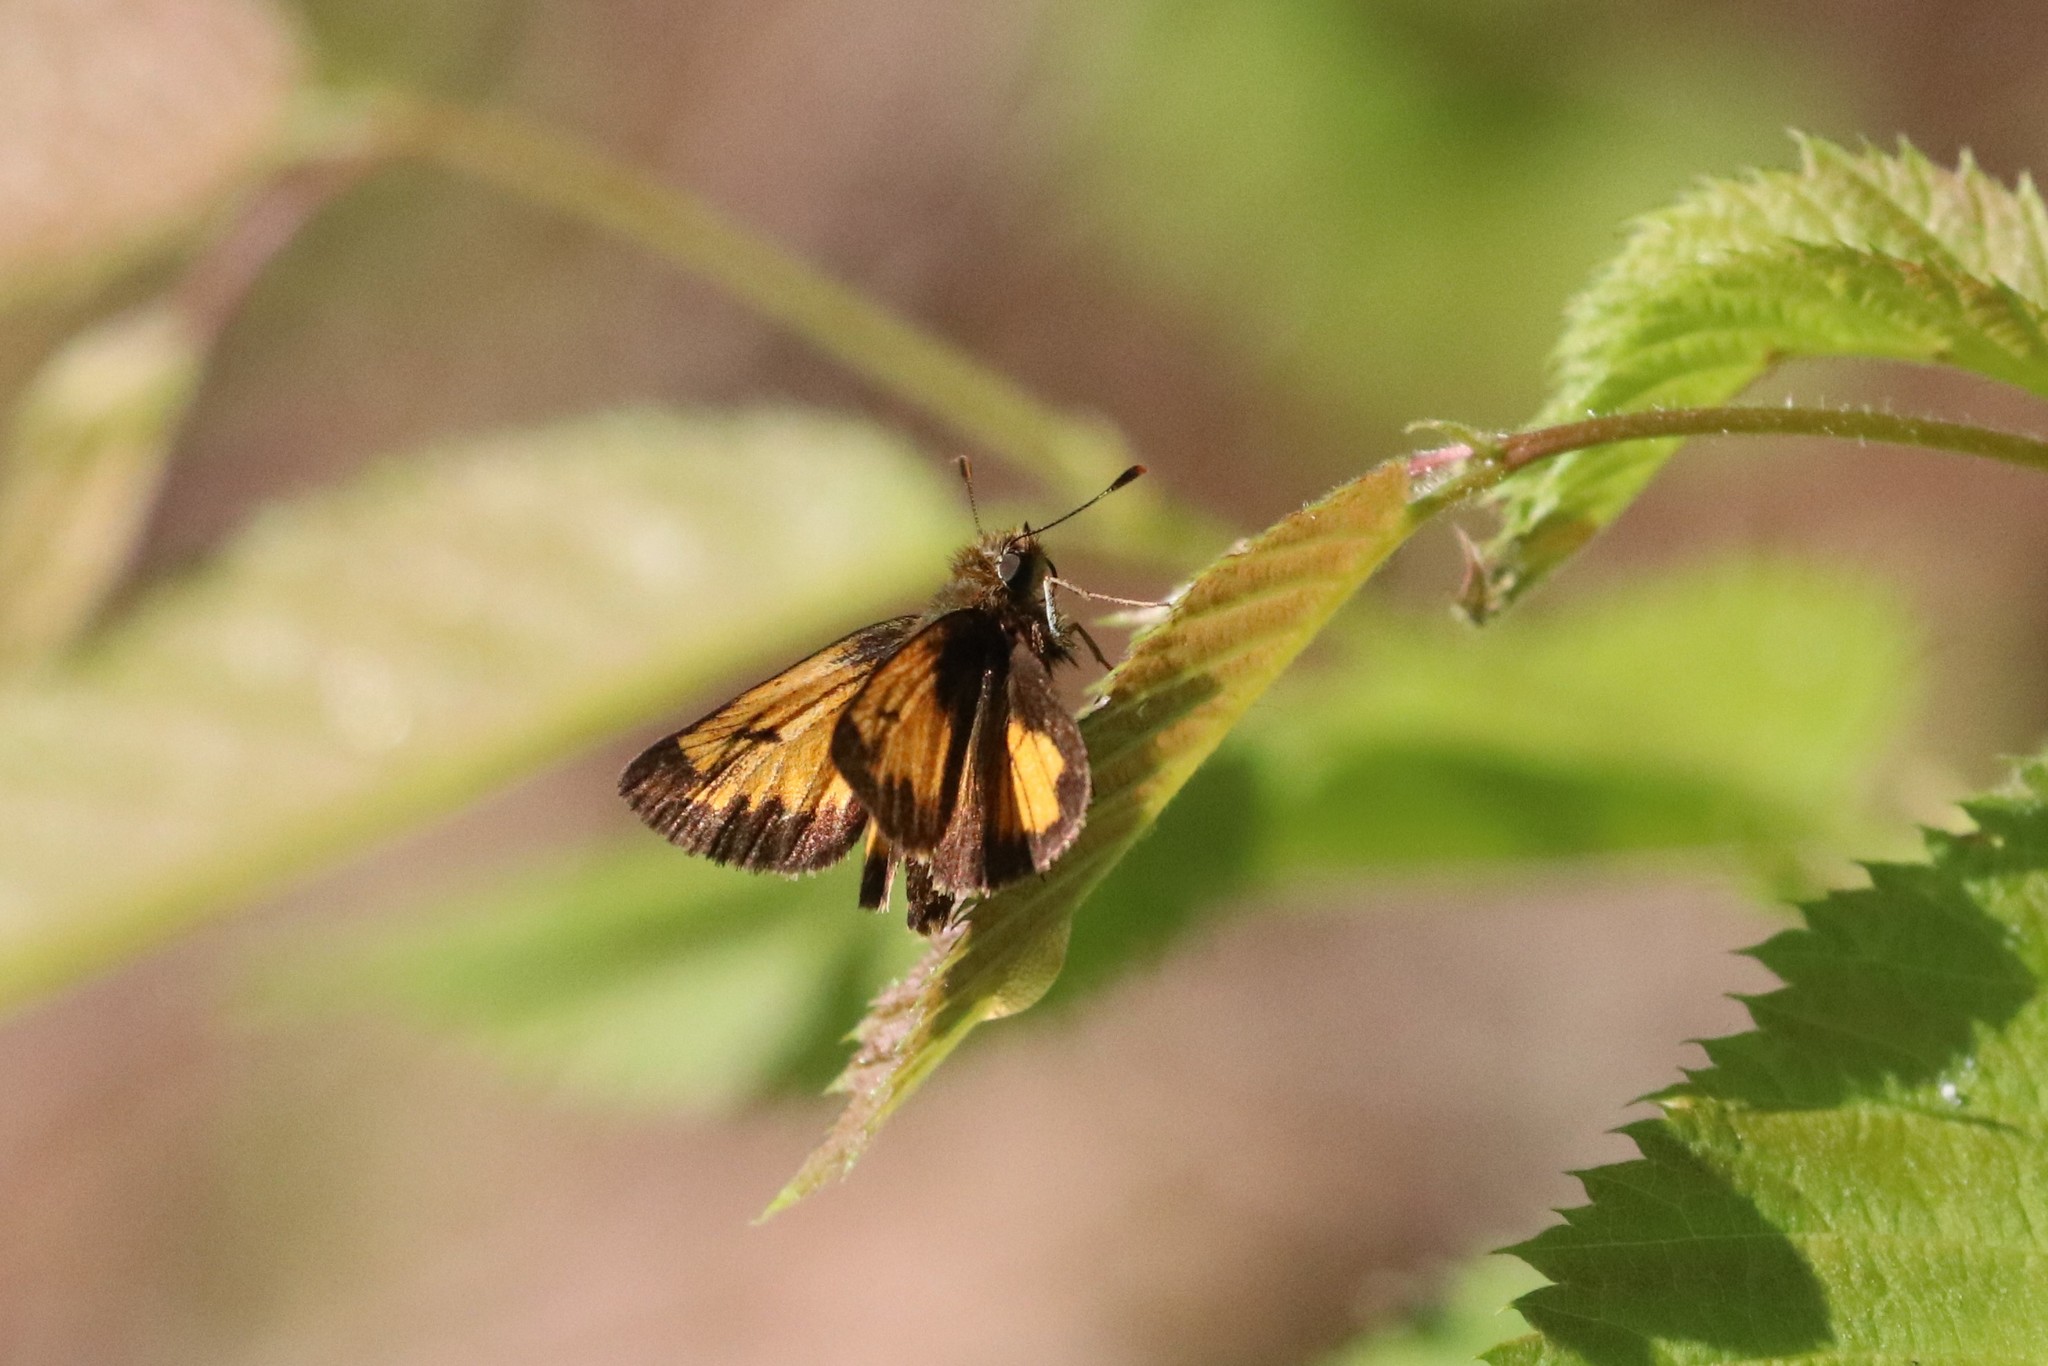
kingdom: Animalia
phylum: Arthropoda
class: Insecta
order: Lepidoptera
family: Hesperiidae
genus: Lon
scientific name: Lon hobomok
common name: Hobomok skipper
